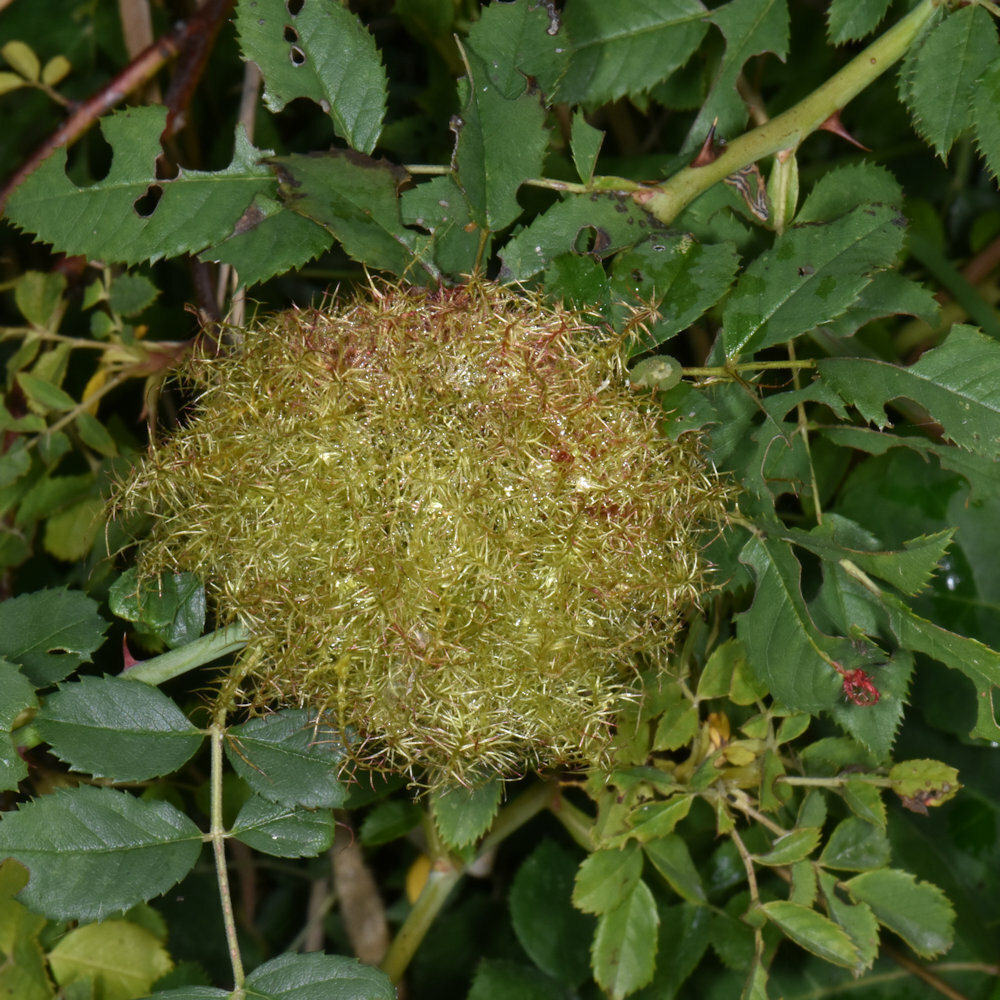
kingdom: Animalia
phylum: Arthropoda
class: Insecta
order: Hymenoptera
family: Cynipidae
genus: Diplolepis
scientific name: Diplolepis rosae
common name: Bedeguar gall
